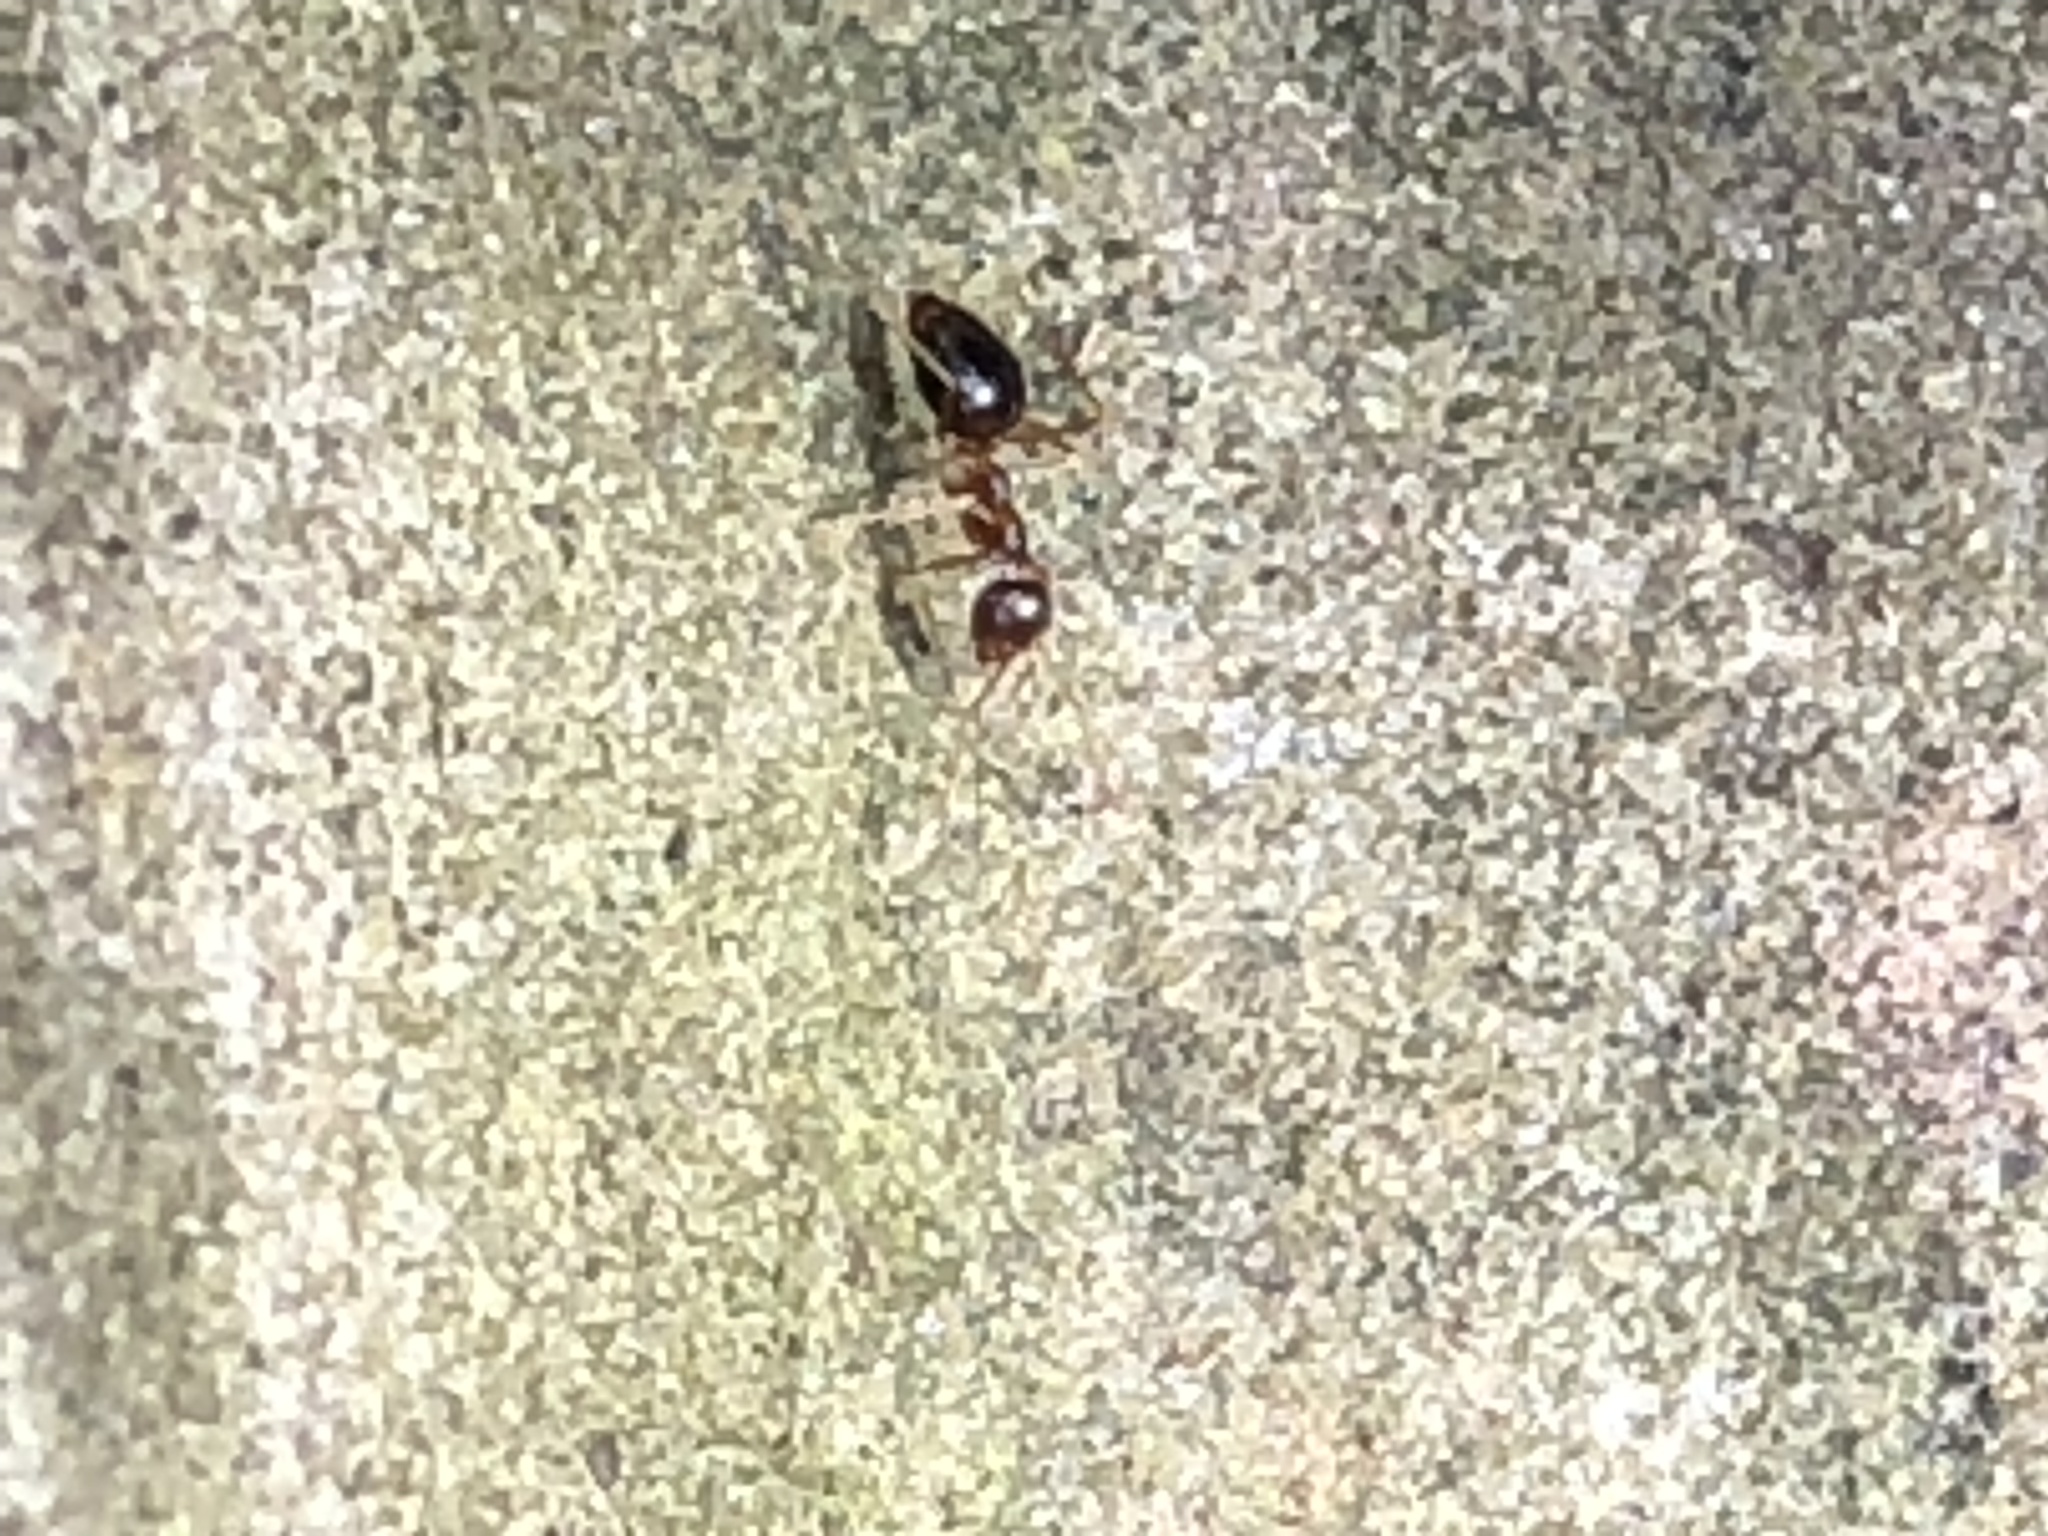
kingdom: Animalia
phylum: Arthropoda
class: Insecta
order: Hymenoptera
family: Formicidae
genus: Prenolepis
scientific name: Prenolepis imparis
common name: Small honey ant
